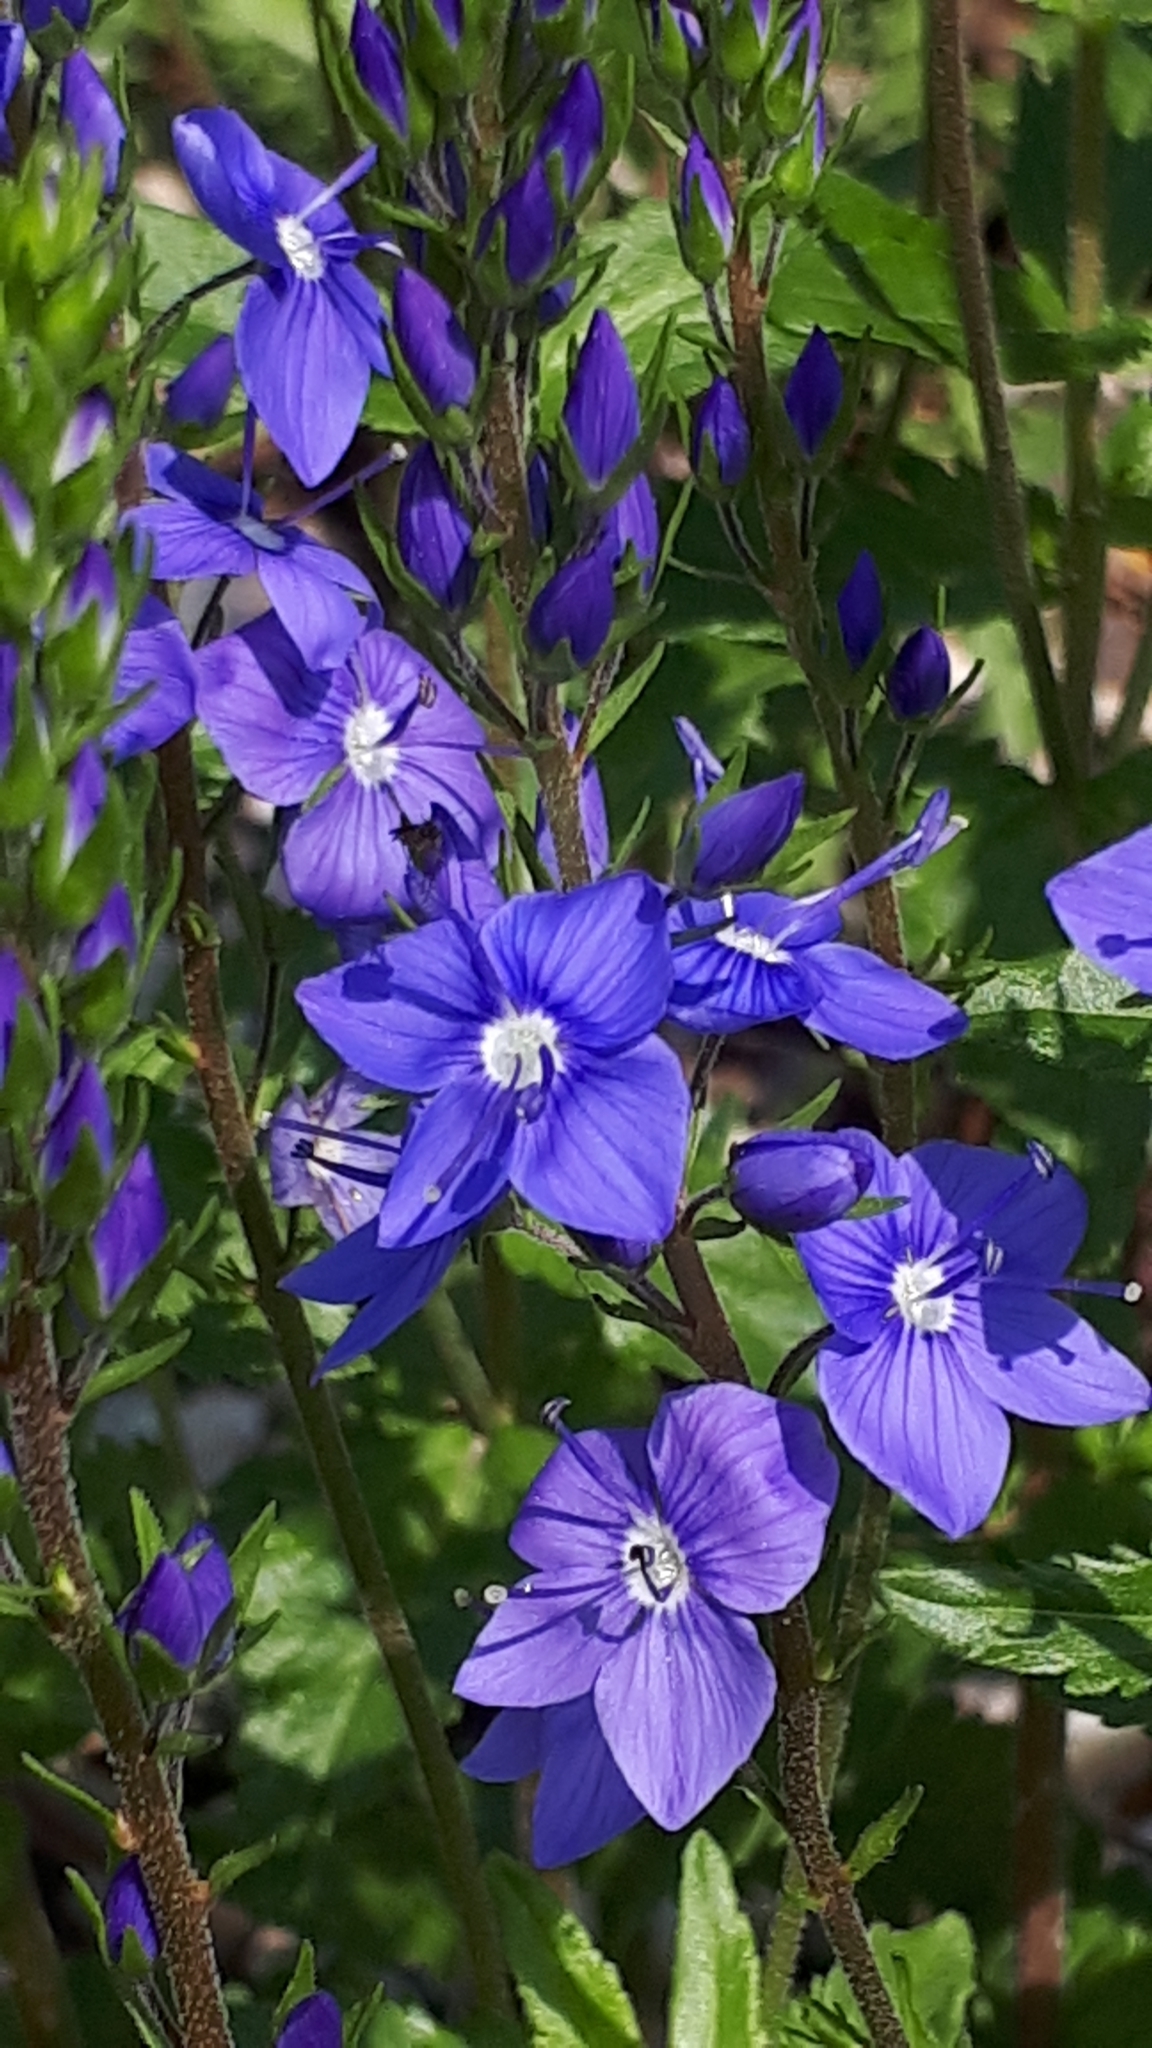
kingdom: Plantae
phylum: Tracheophyta
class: Magnoliopsida
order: Lamiales
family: Plantaginaceae
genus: Veronica
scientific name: Veronica austriaca
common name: Large speedwell
